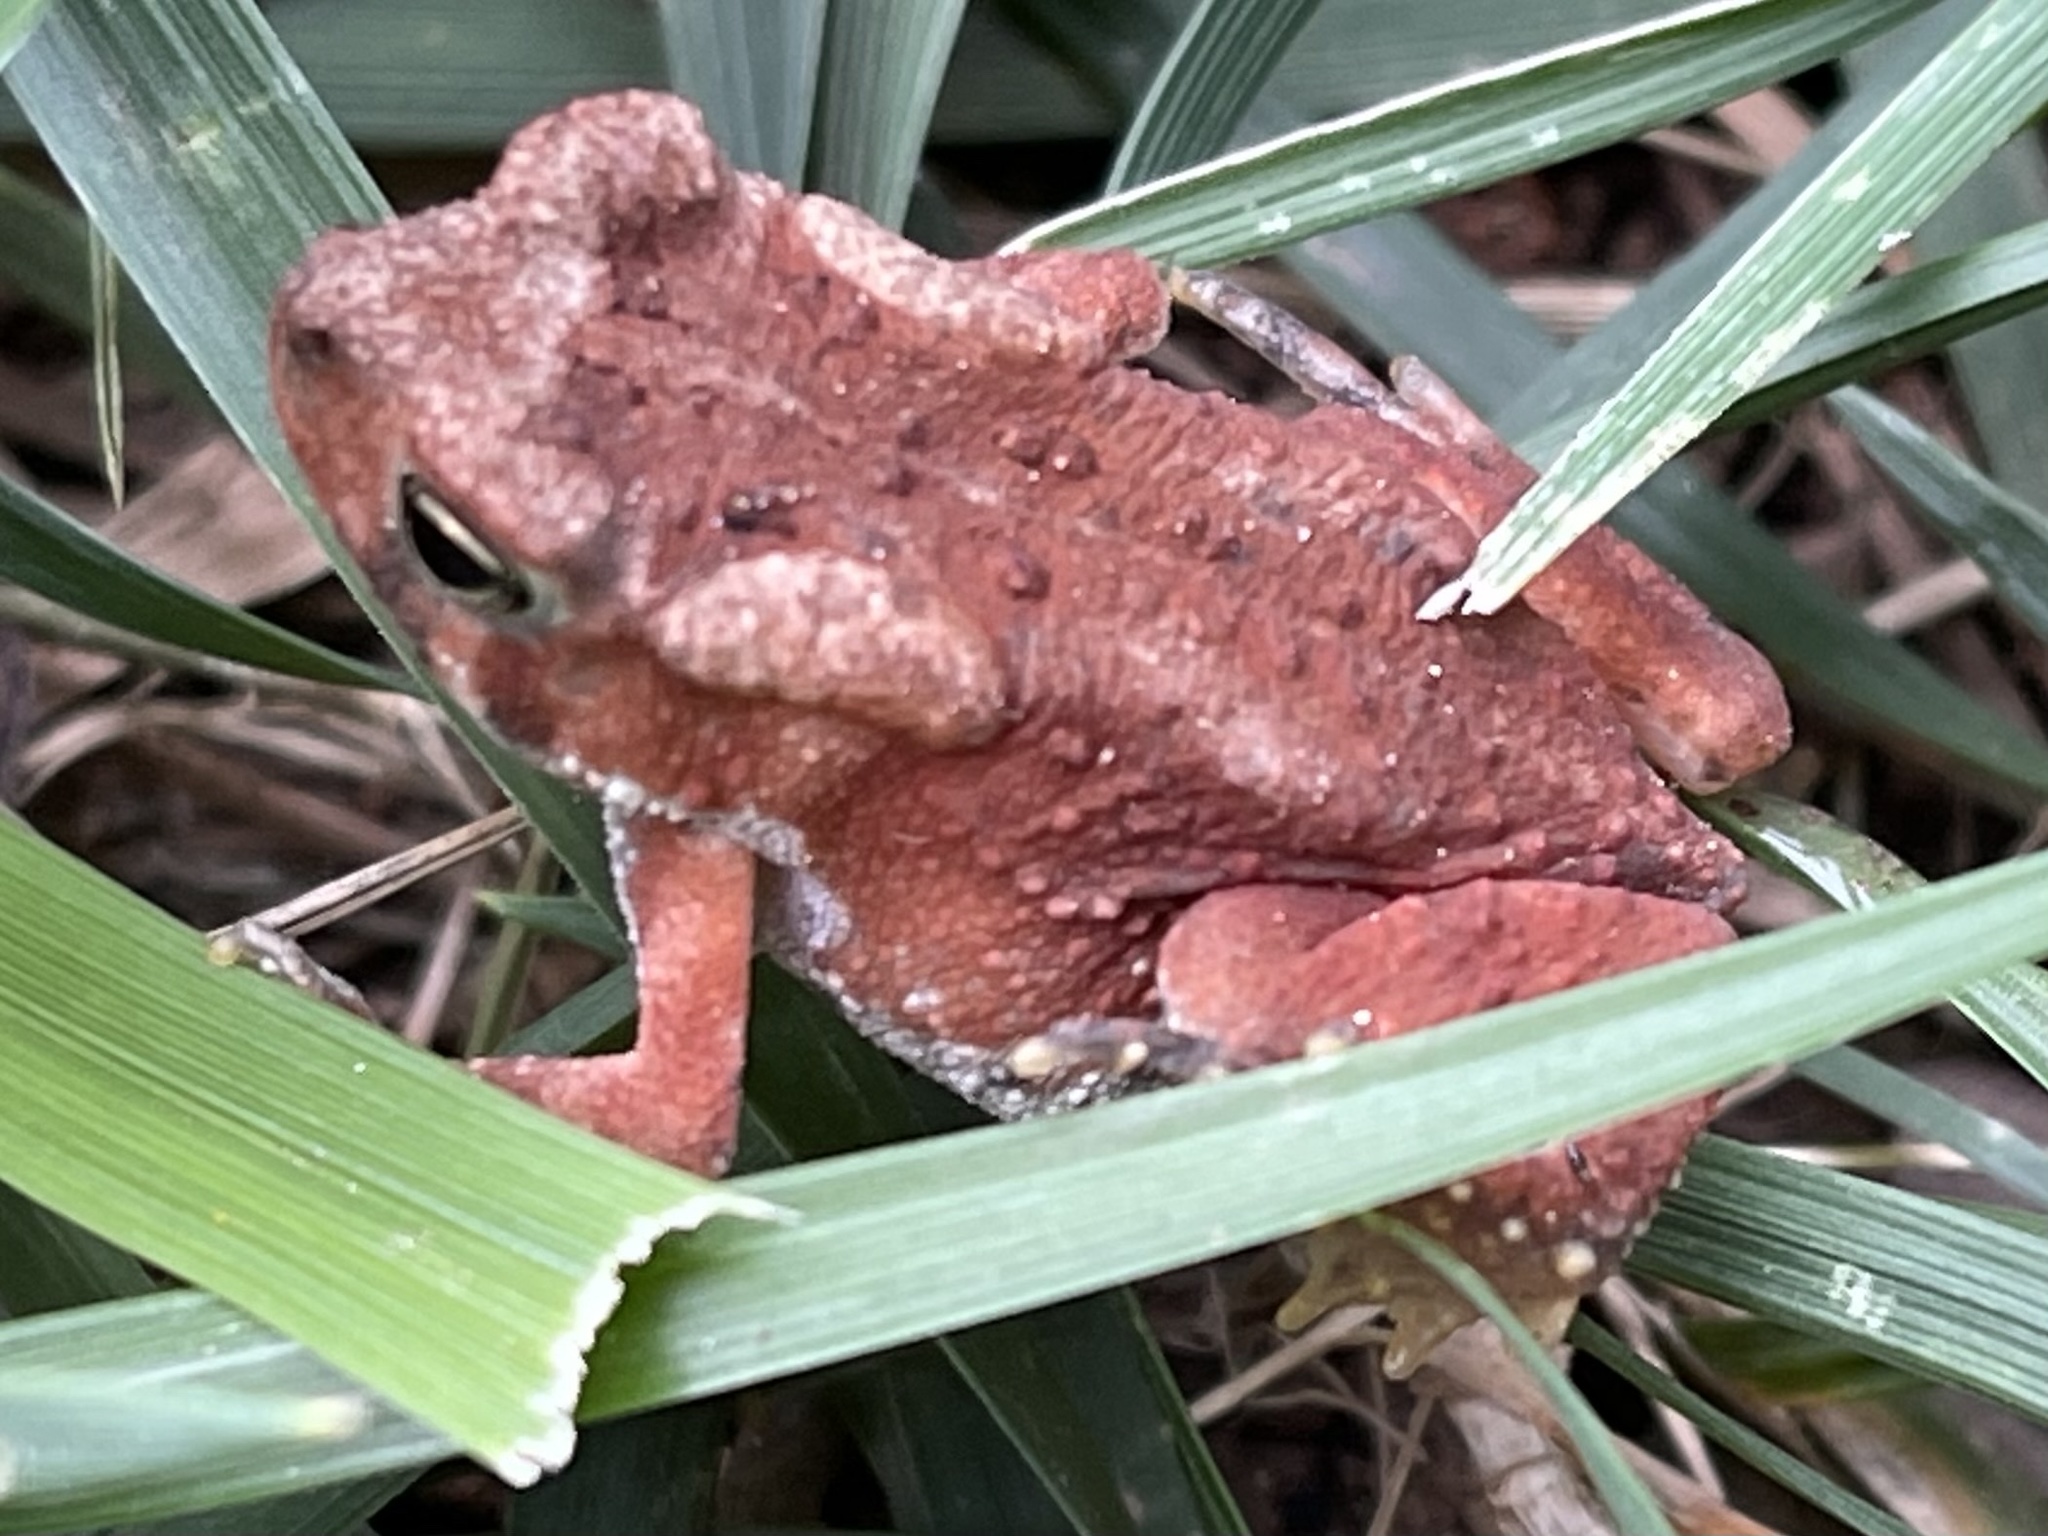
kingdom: Animalia
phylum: Chordata
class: Amphibia
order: Anura
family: Bufonidae
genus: Anaxyrus
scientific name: Anaxyrus americanus
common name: American toad
